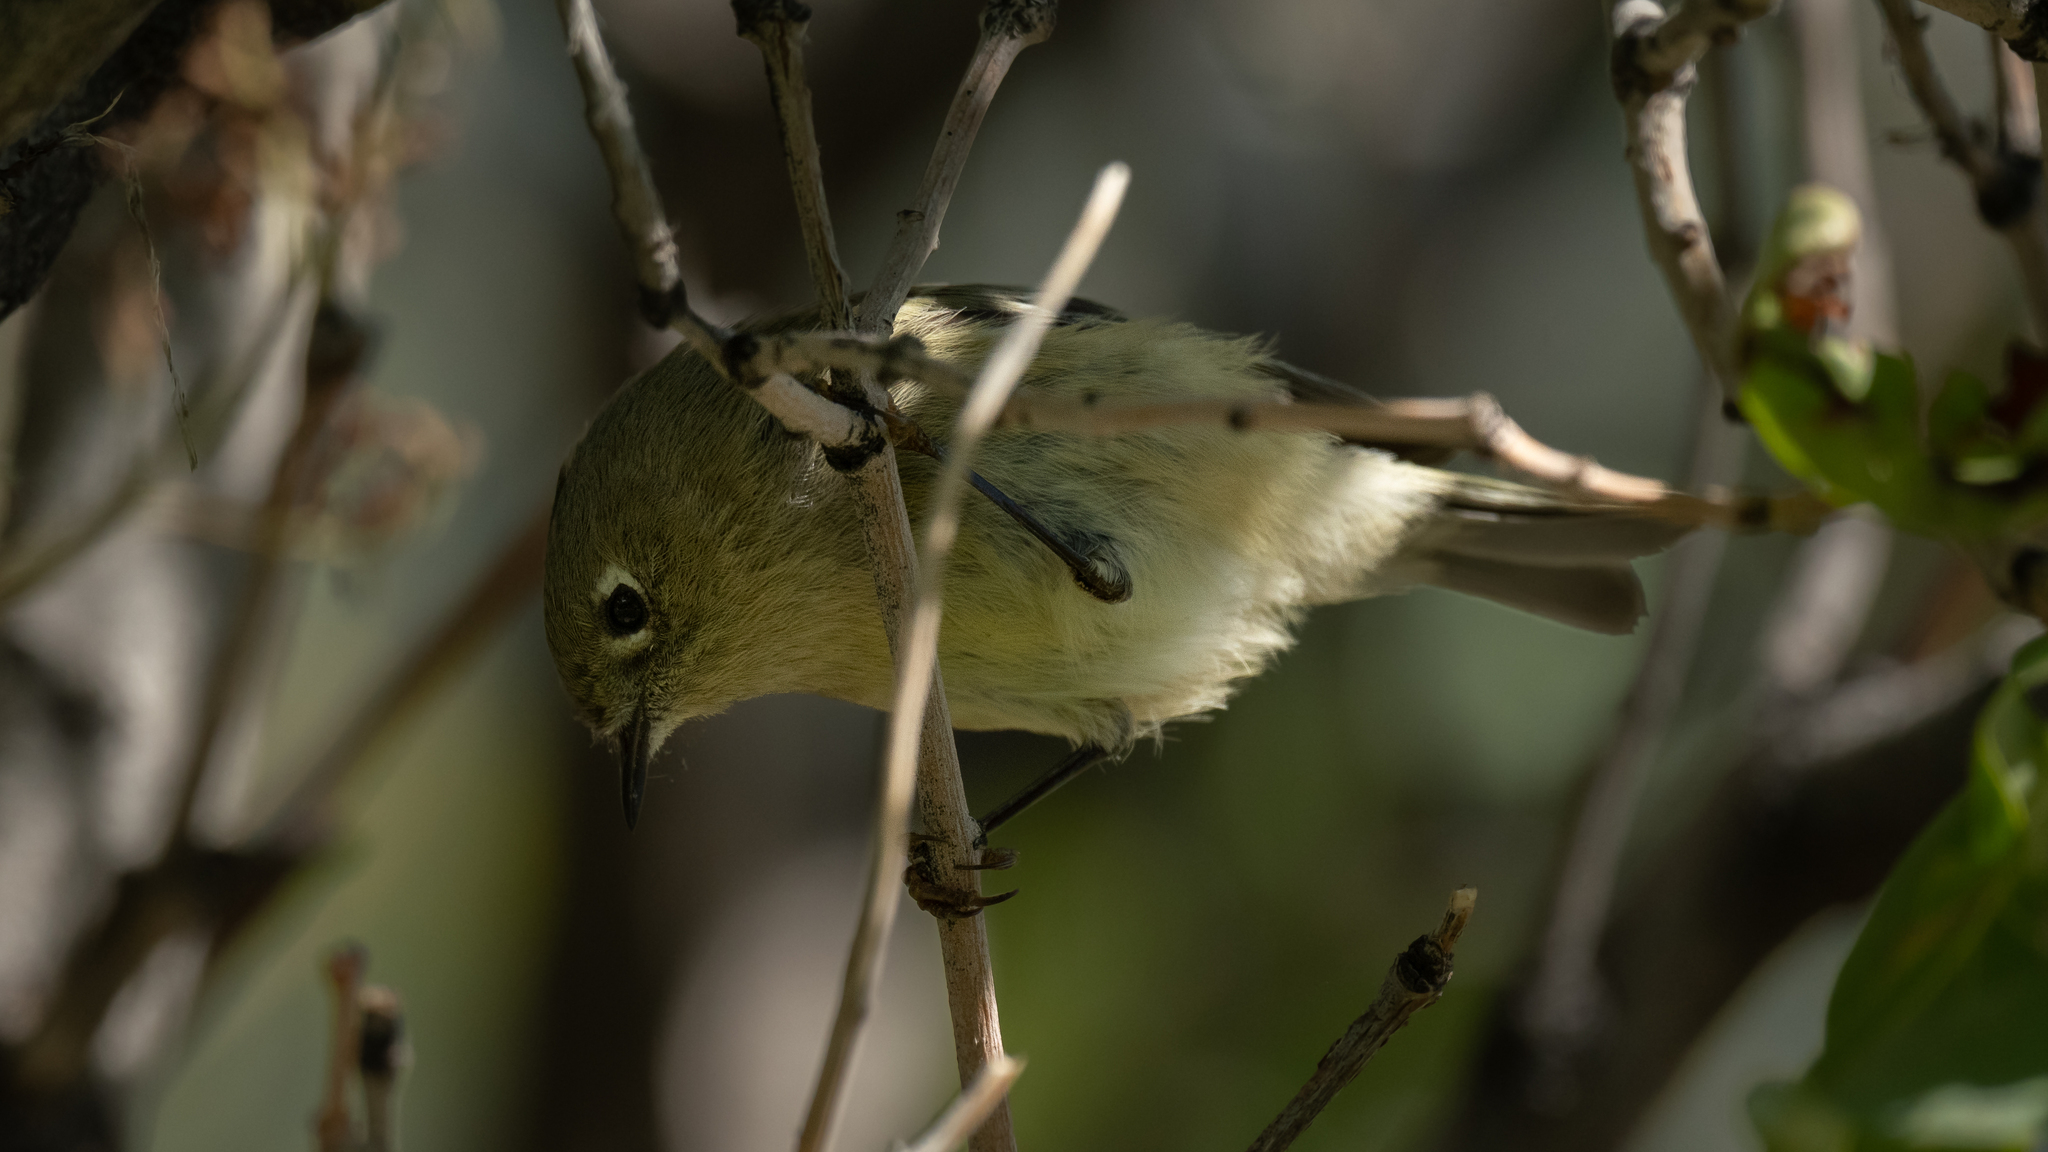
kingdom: Animalia
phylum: Chordata
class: Aves
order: Passeriformes
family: Regulidae
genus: Regulus
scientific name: Regulus calendula
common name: Ruby-crowned kinglet
